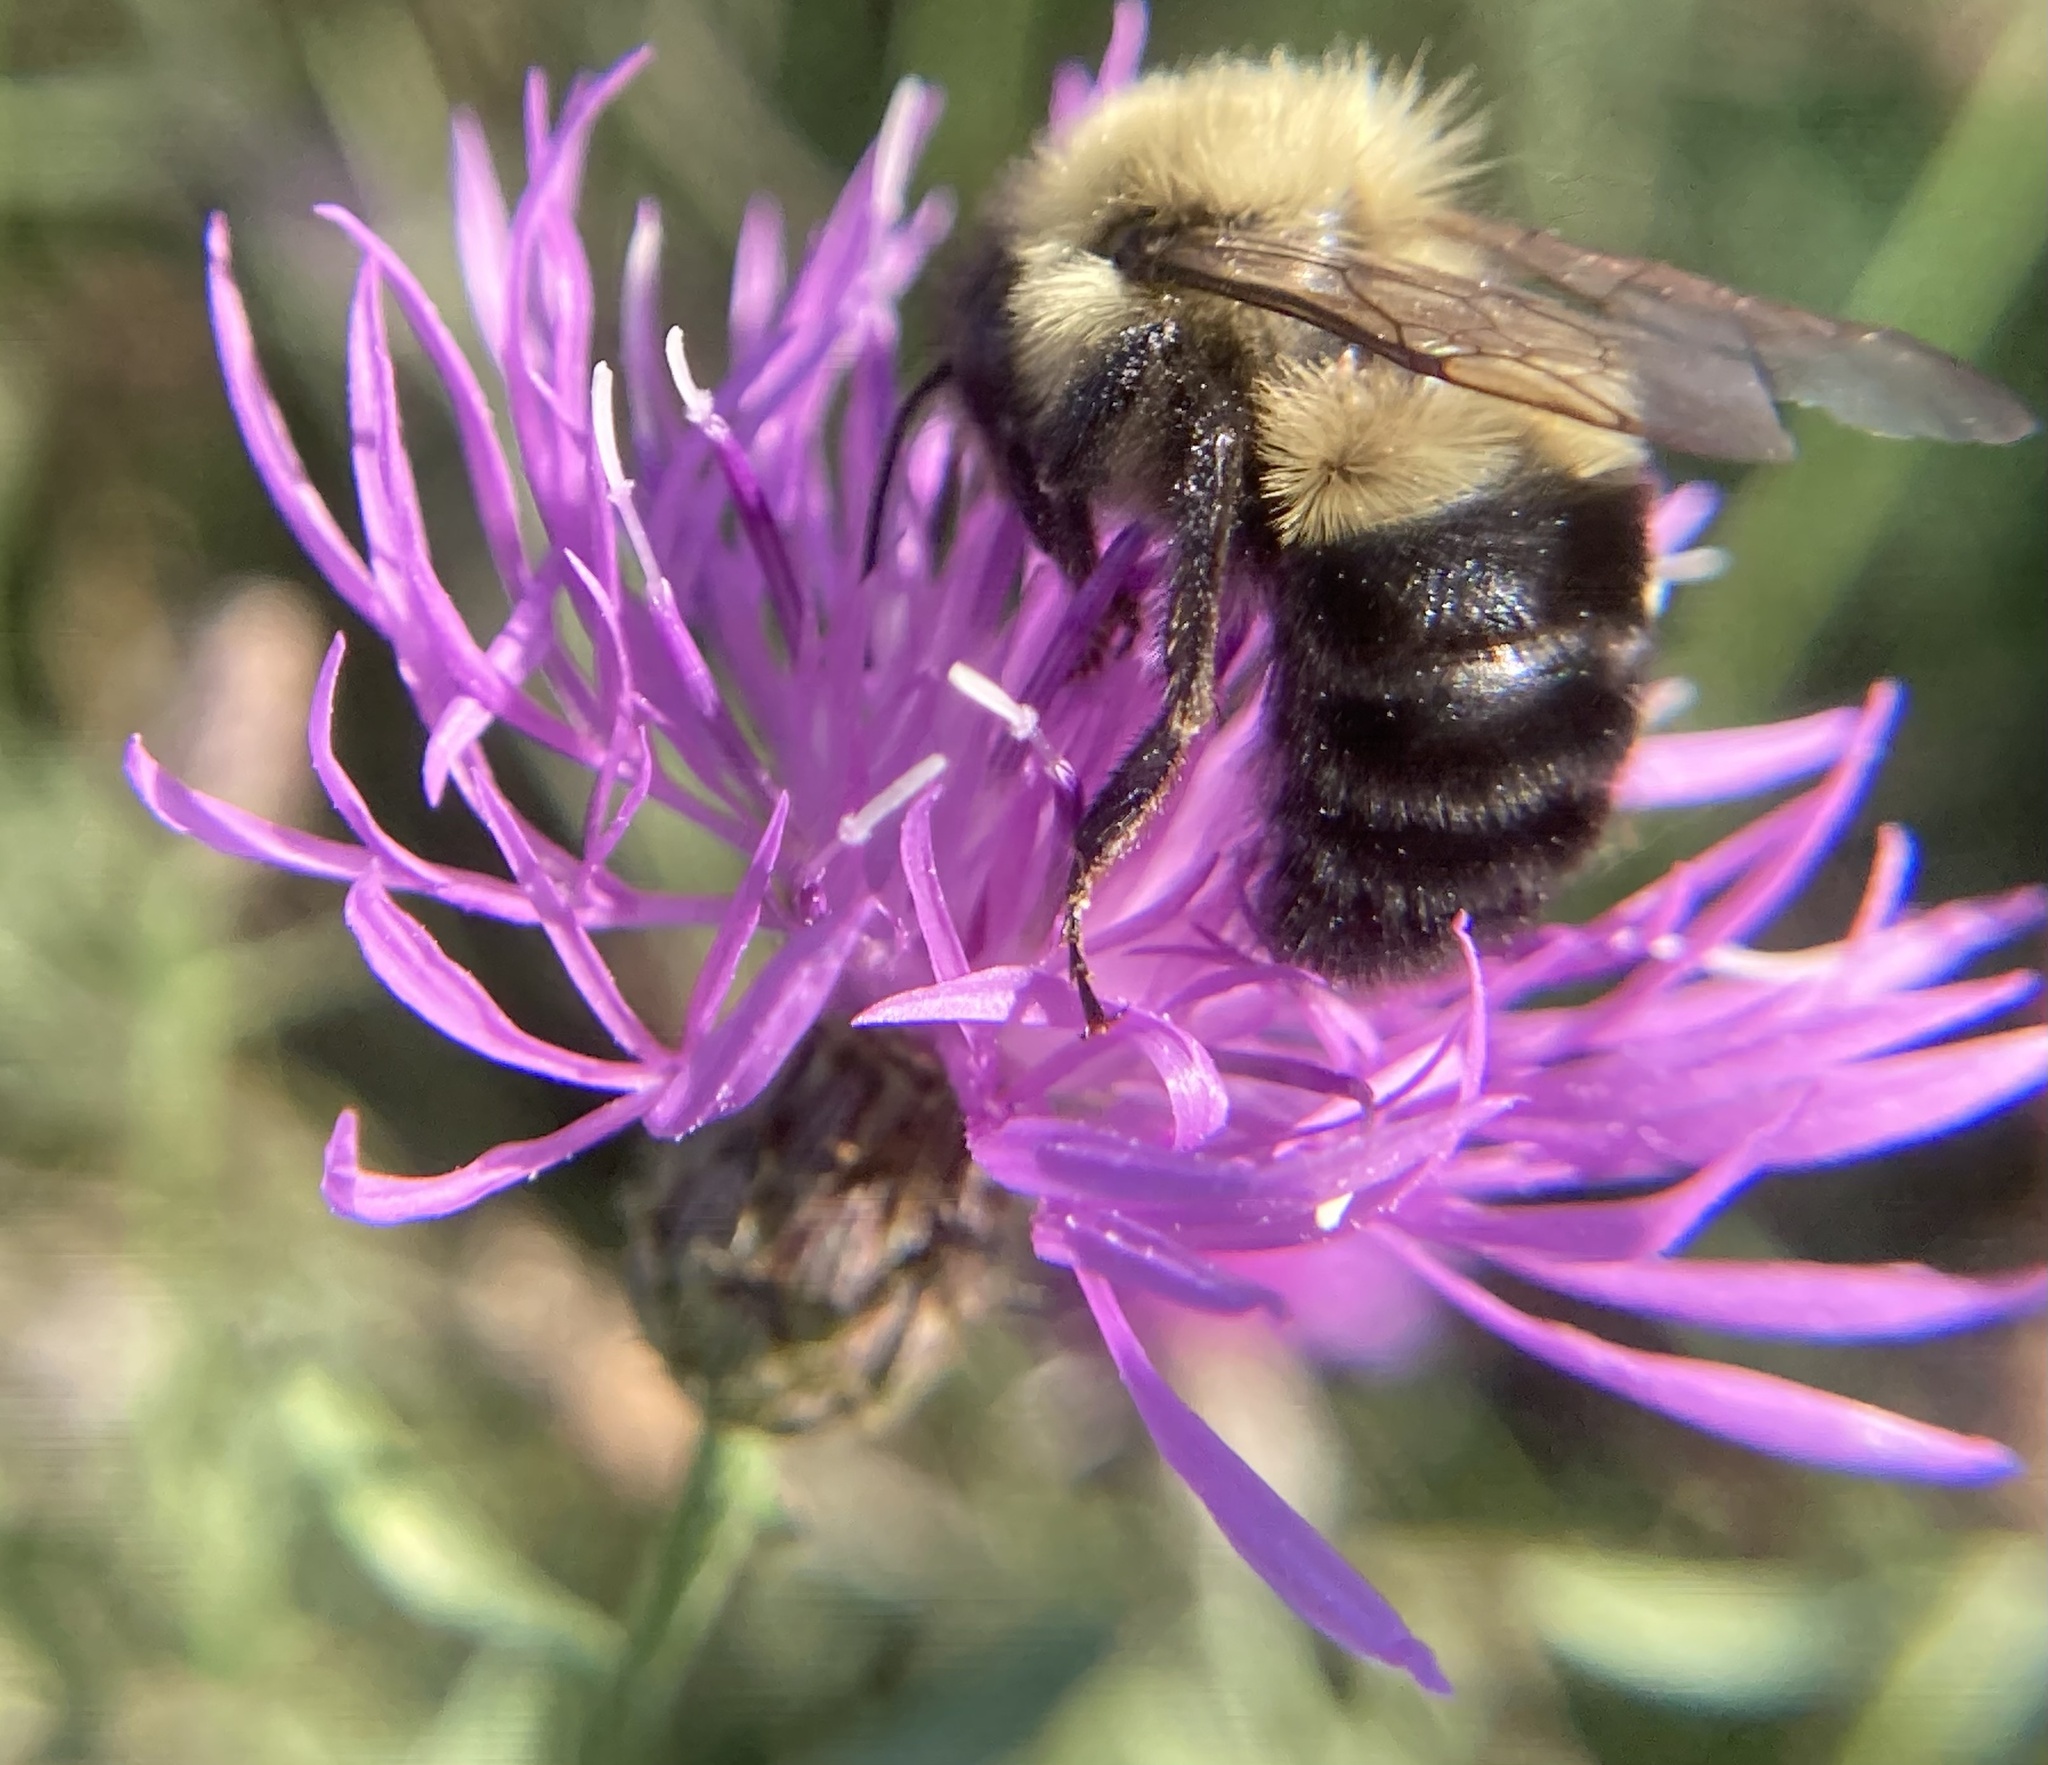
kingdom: Animalia
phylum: Arthropoda
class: Insecta
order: Hymenoptera
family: Apidae
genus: Bombus
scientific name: Bombus impatiens
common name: Common eastern bumble bee
